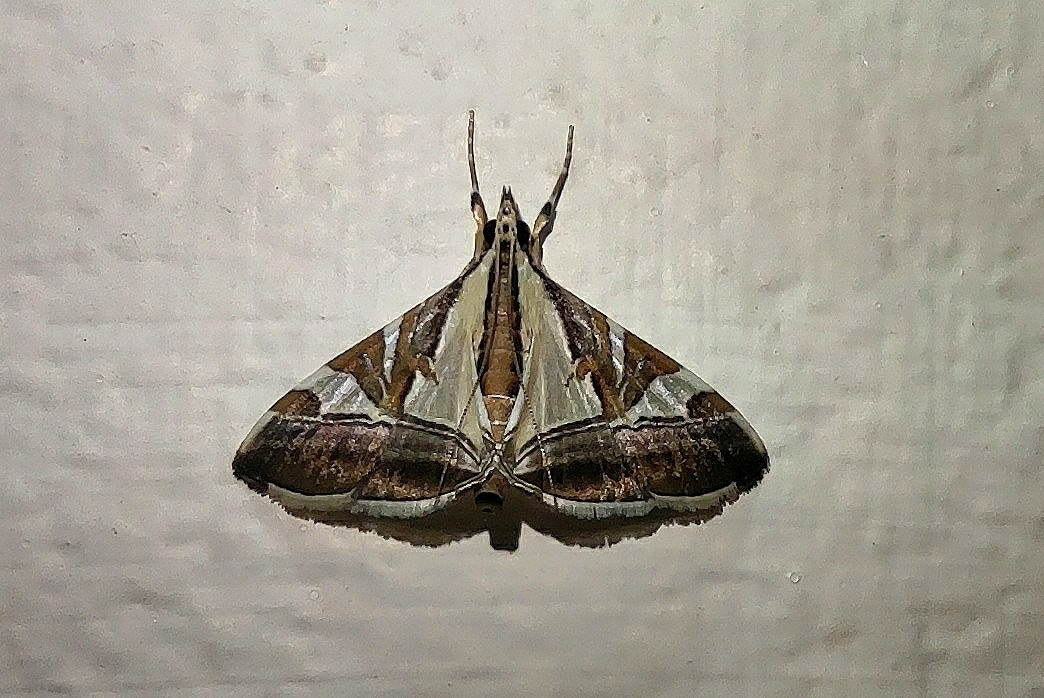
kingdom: Animalia
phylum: Arthropoda
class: Insecta
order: Lepidoptera
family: Crambidae
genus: Agrioglypta
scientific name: Agrioglypta itysalis
